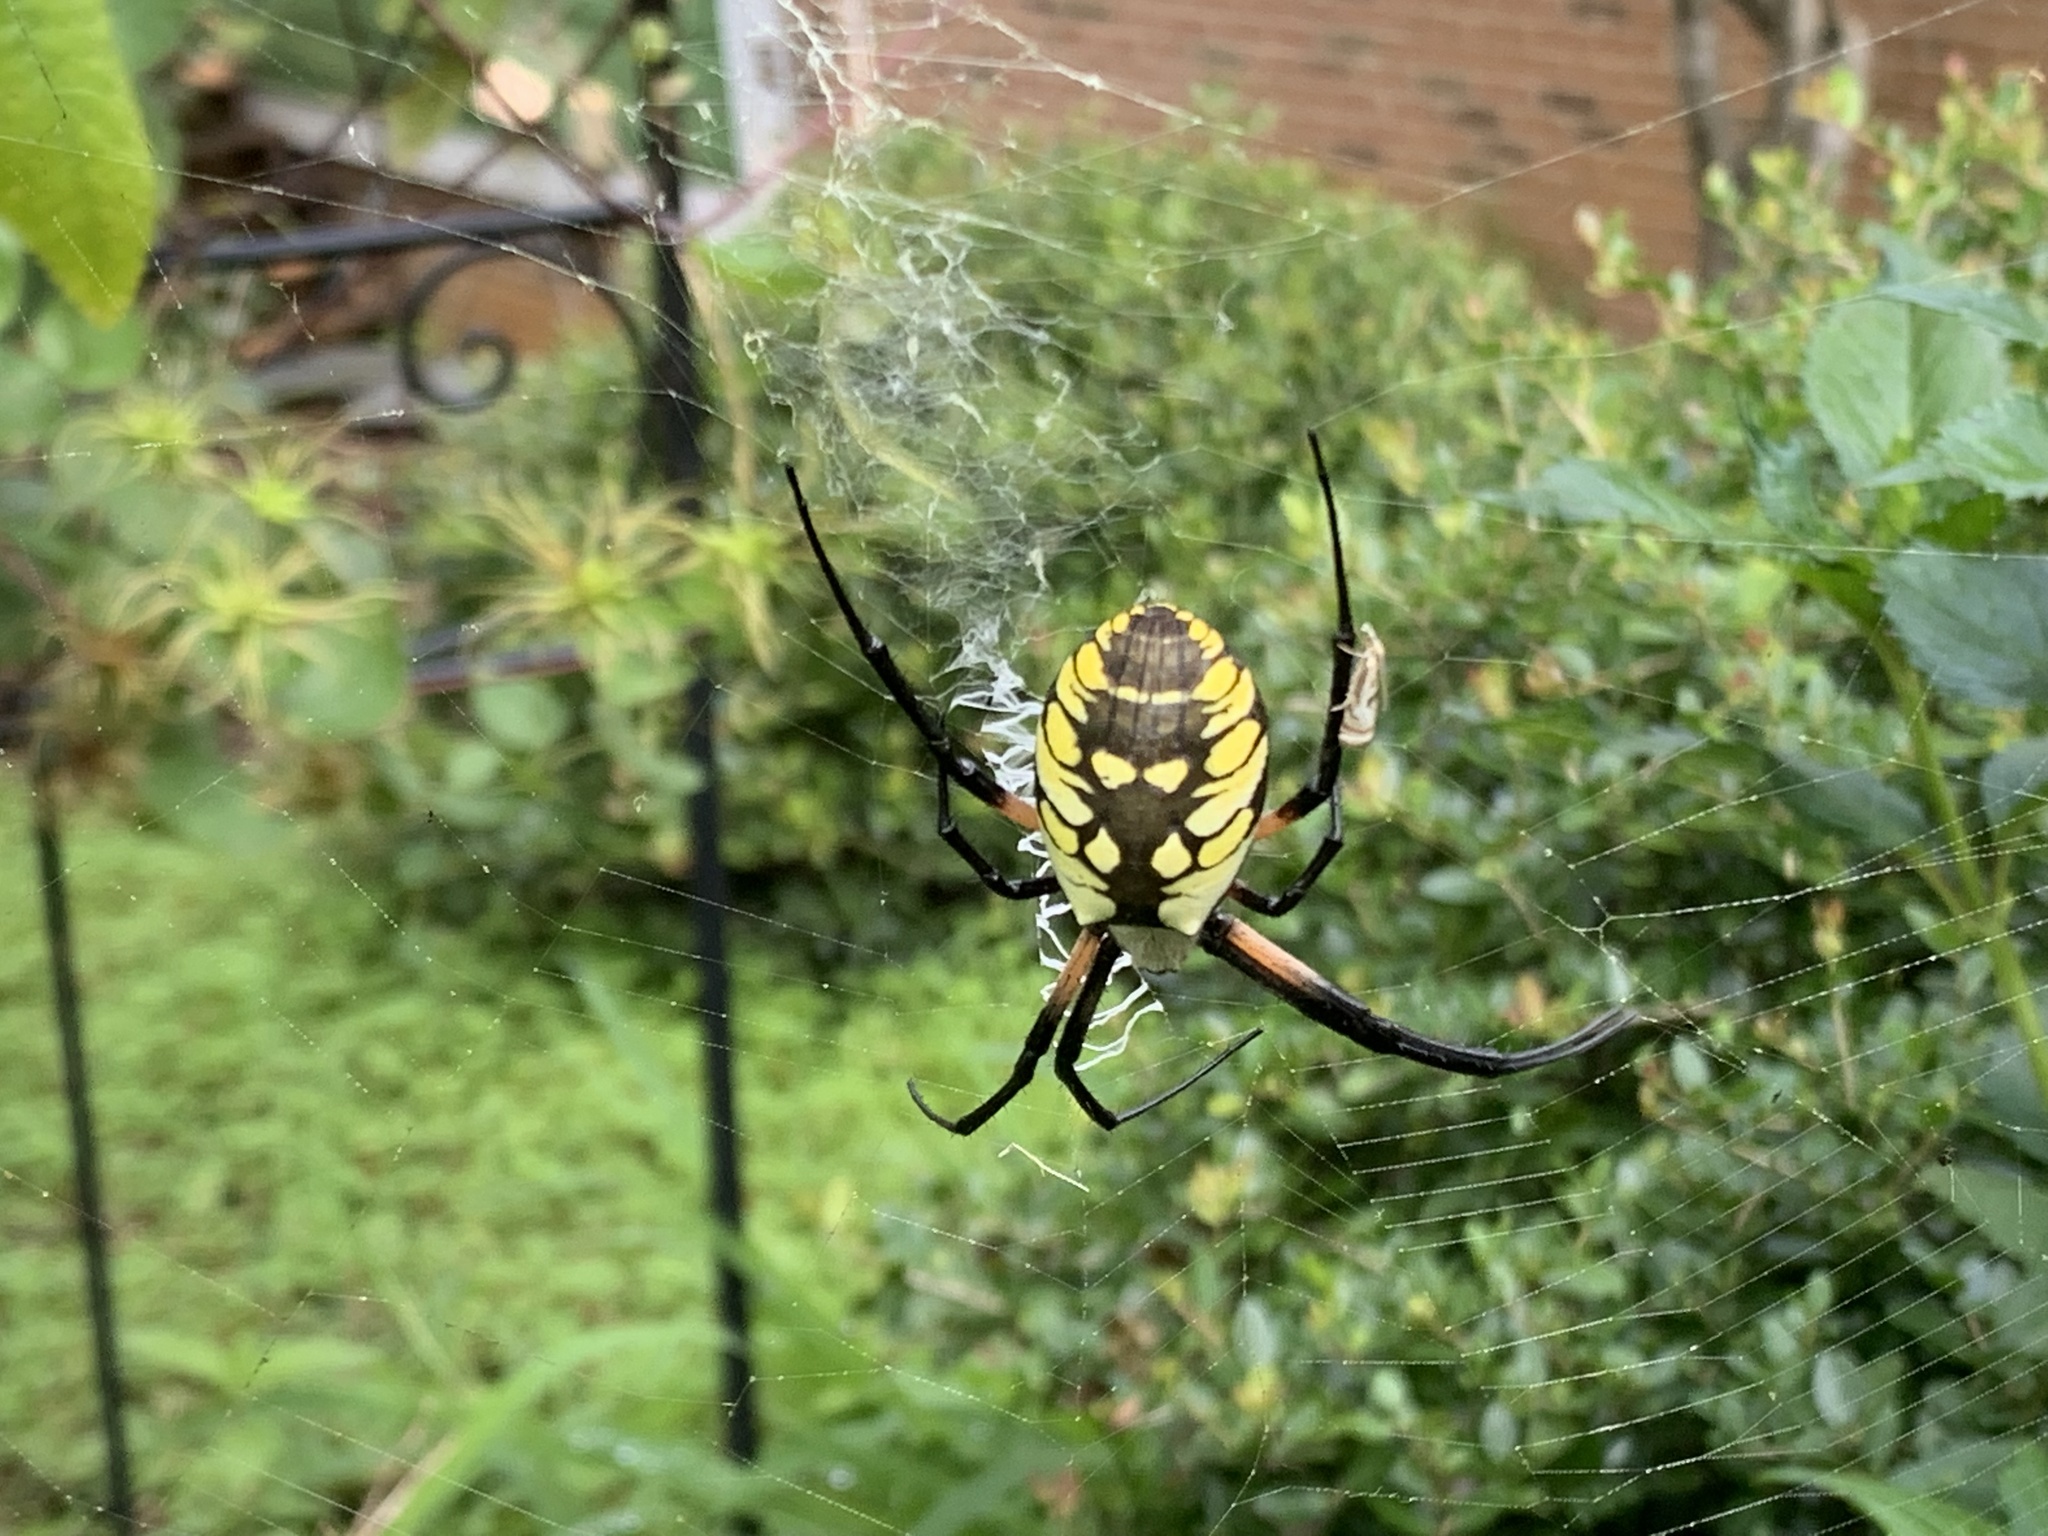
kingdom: Animalia
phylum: Arthropoda
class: Arachnida
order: Araneae
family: Araneidae
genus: Argiope
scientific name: Argiope aurantia
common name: Orb weavers
